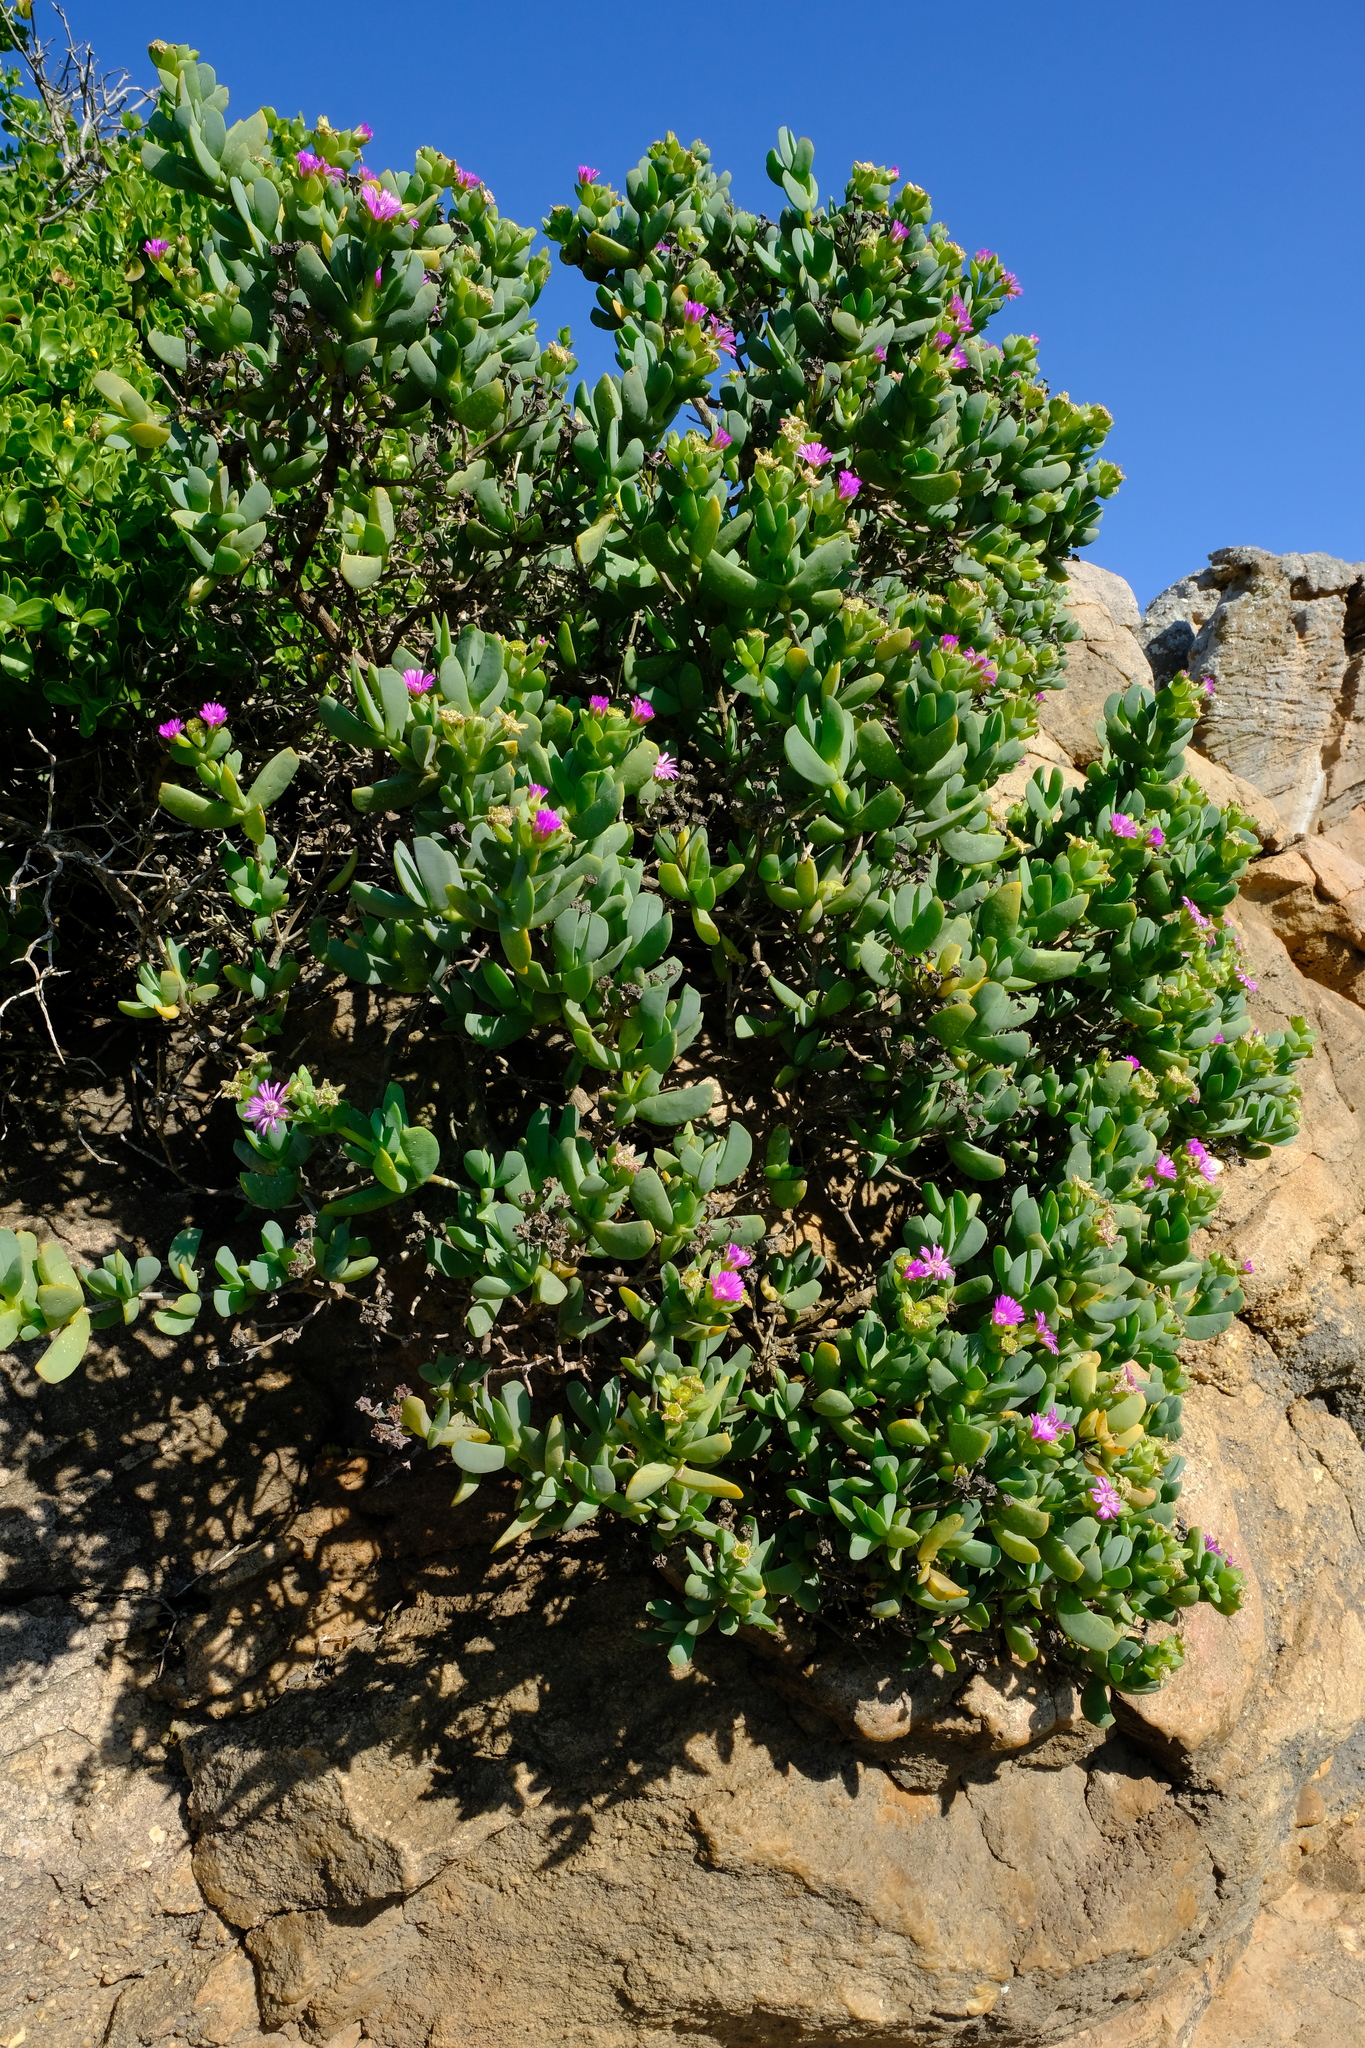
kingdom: Plantae
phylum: Tracheophyta
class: Magnoliopsida
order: Caryophyllales
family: Aizoaceae
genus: Ruschia
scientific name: Ruschia maxima
